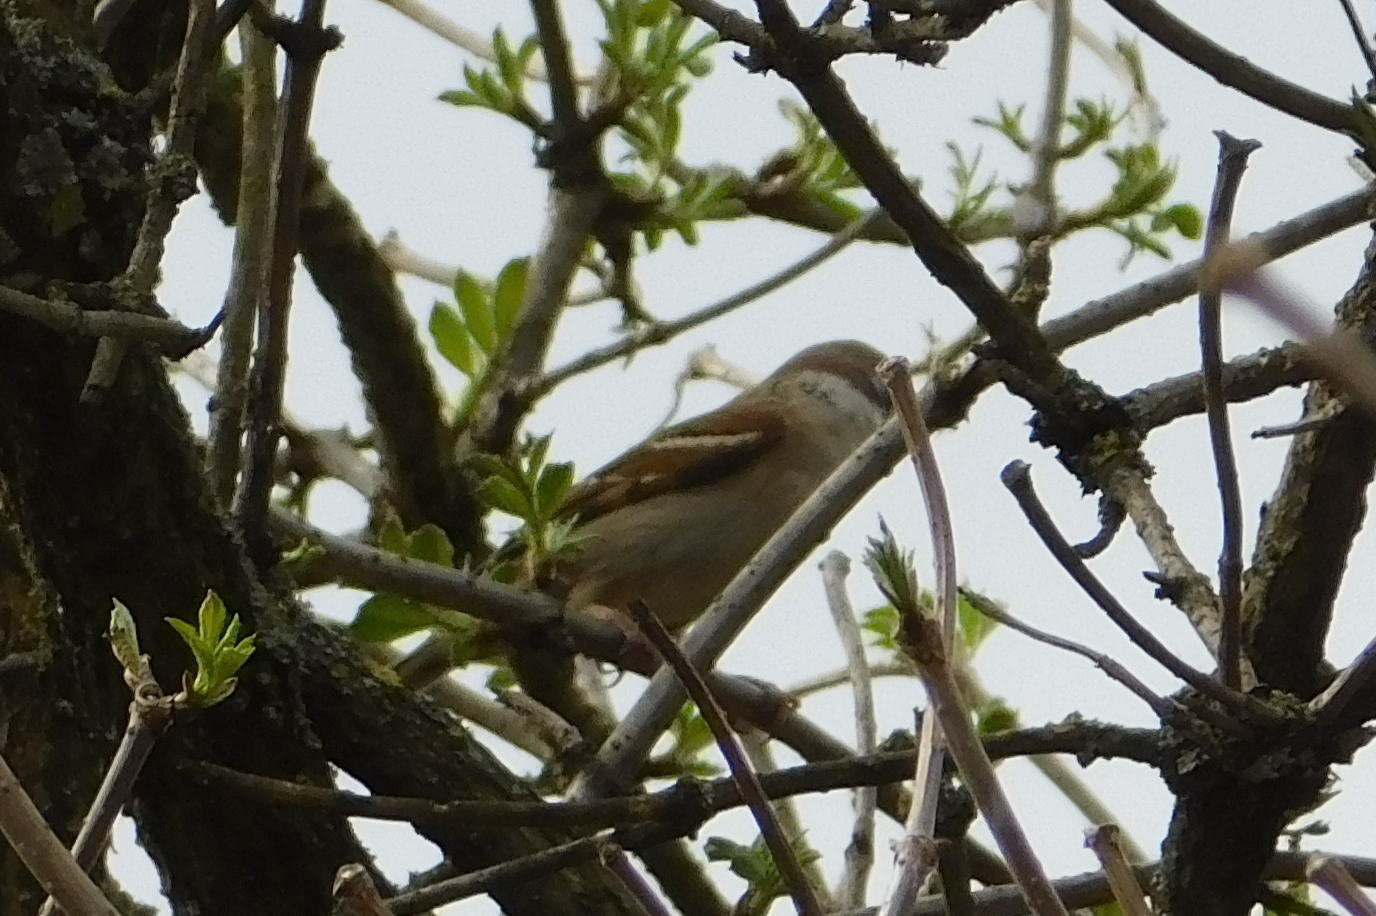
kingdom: Animalia
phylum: Chordata
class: Aves
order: Passeriformes
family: Passeridae
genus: Passer
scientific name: Passer montanus
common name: Eurasian tree sparrow
